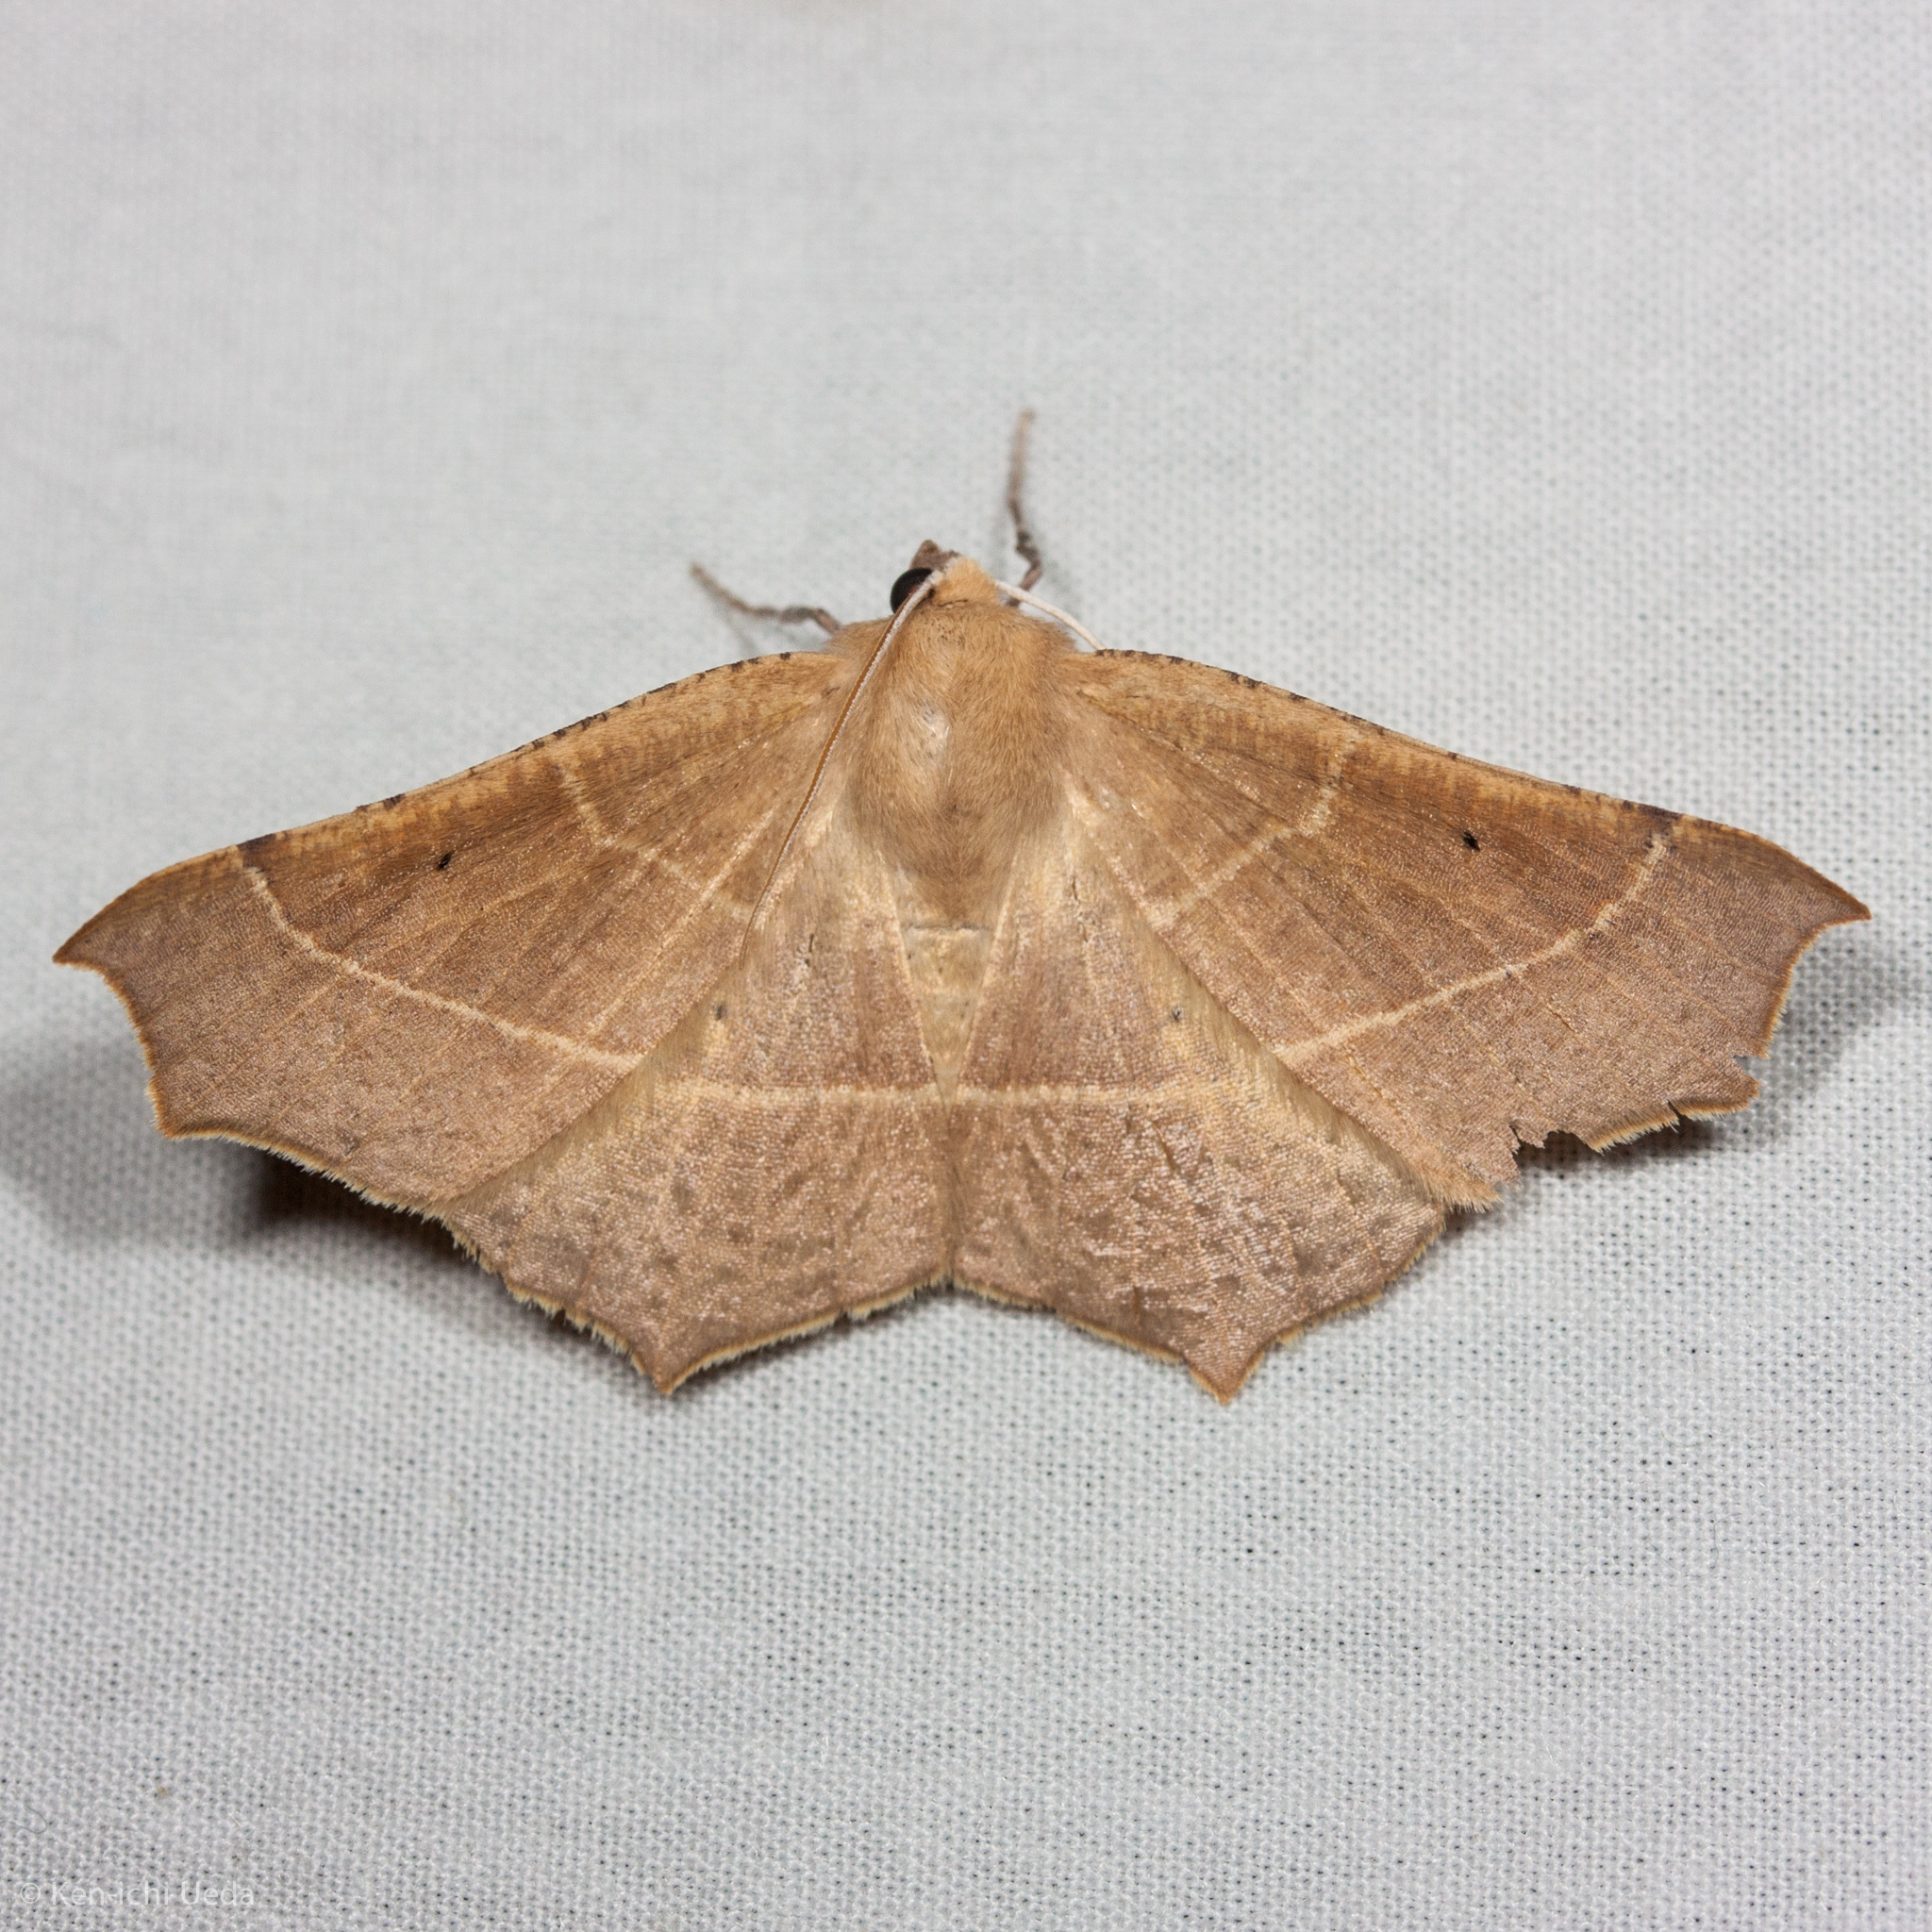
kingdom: Animalia
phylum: Arthropoda
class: Insecta
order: Lepidoptera
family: Geometridae
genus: Tetracis
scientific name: Tetracis cervinaria
